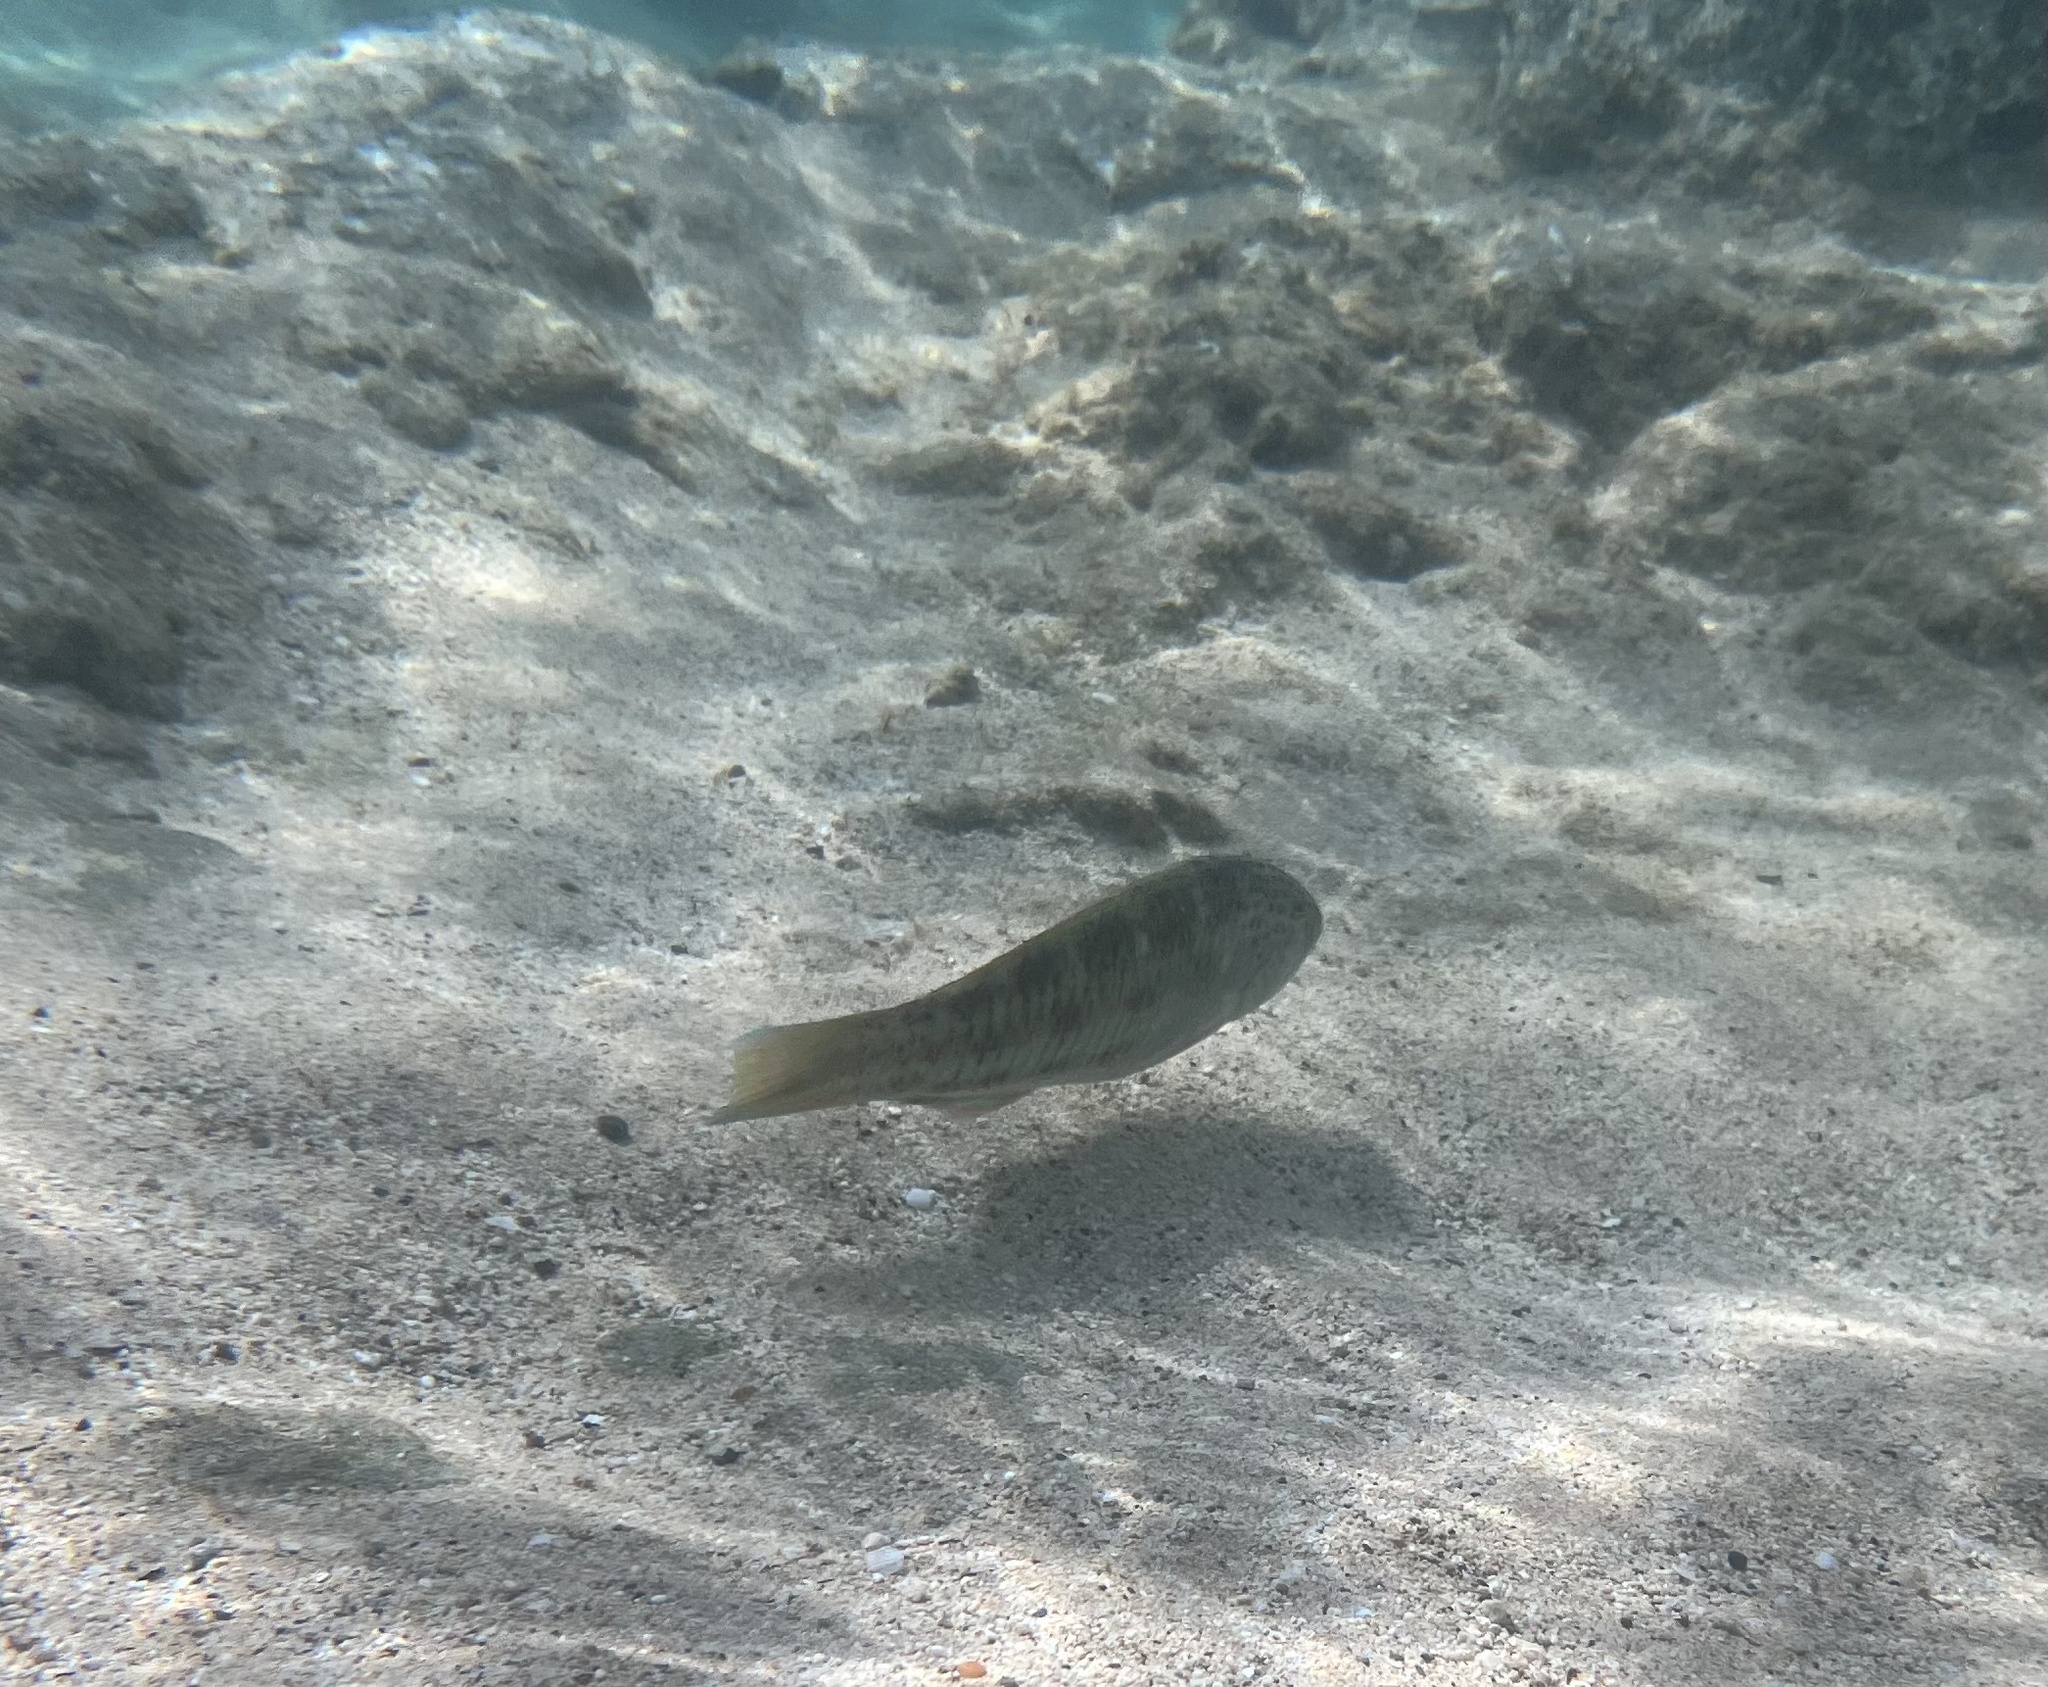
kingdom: Animalia
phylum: Chordata
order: Perciformes
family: Labridae
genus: Thalassoma
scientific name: Thalassoma trilobatum
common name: Christmas wrasse
